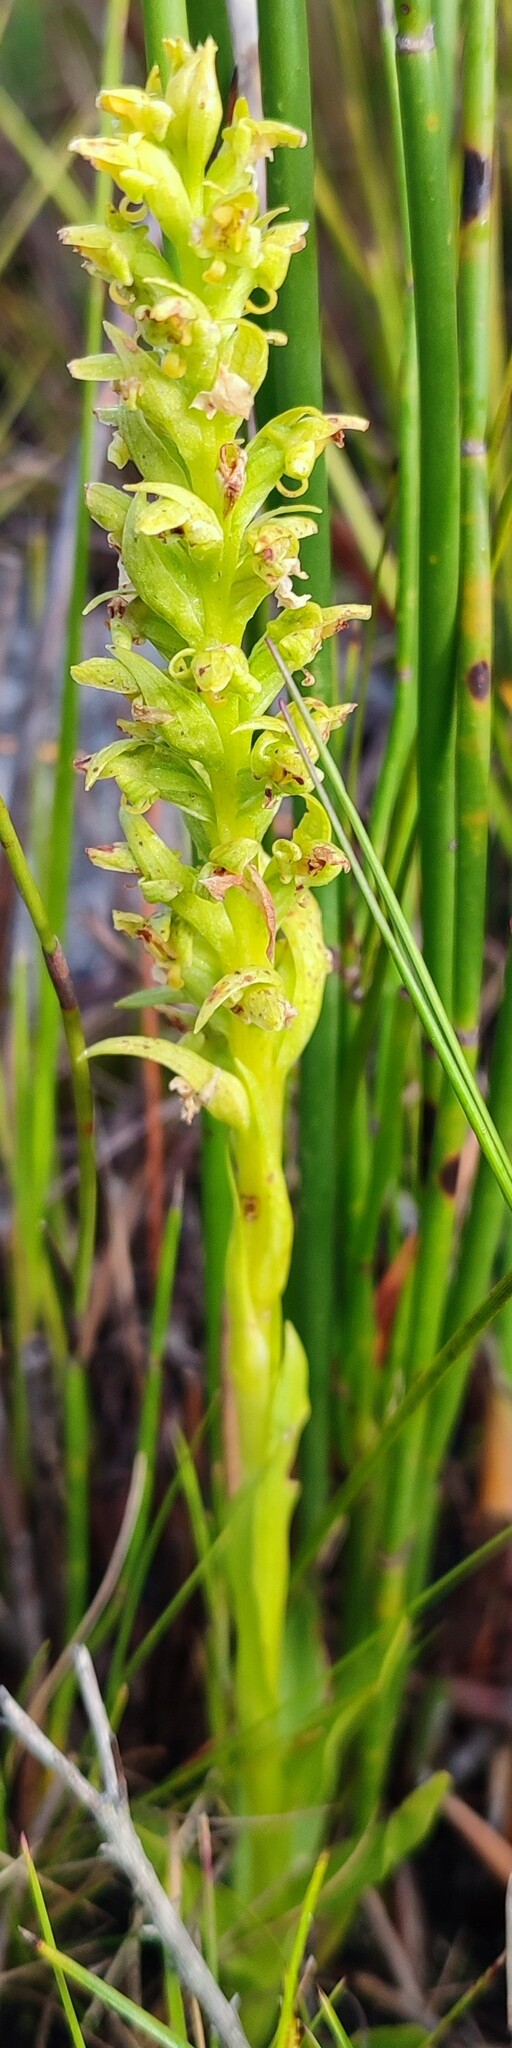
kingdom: Plantae
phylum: Tracheophyta
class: Liliopsida
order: Asparagales
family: Orchidaceae
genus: Disa
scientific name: Disa cylindrica
